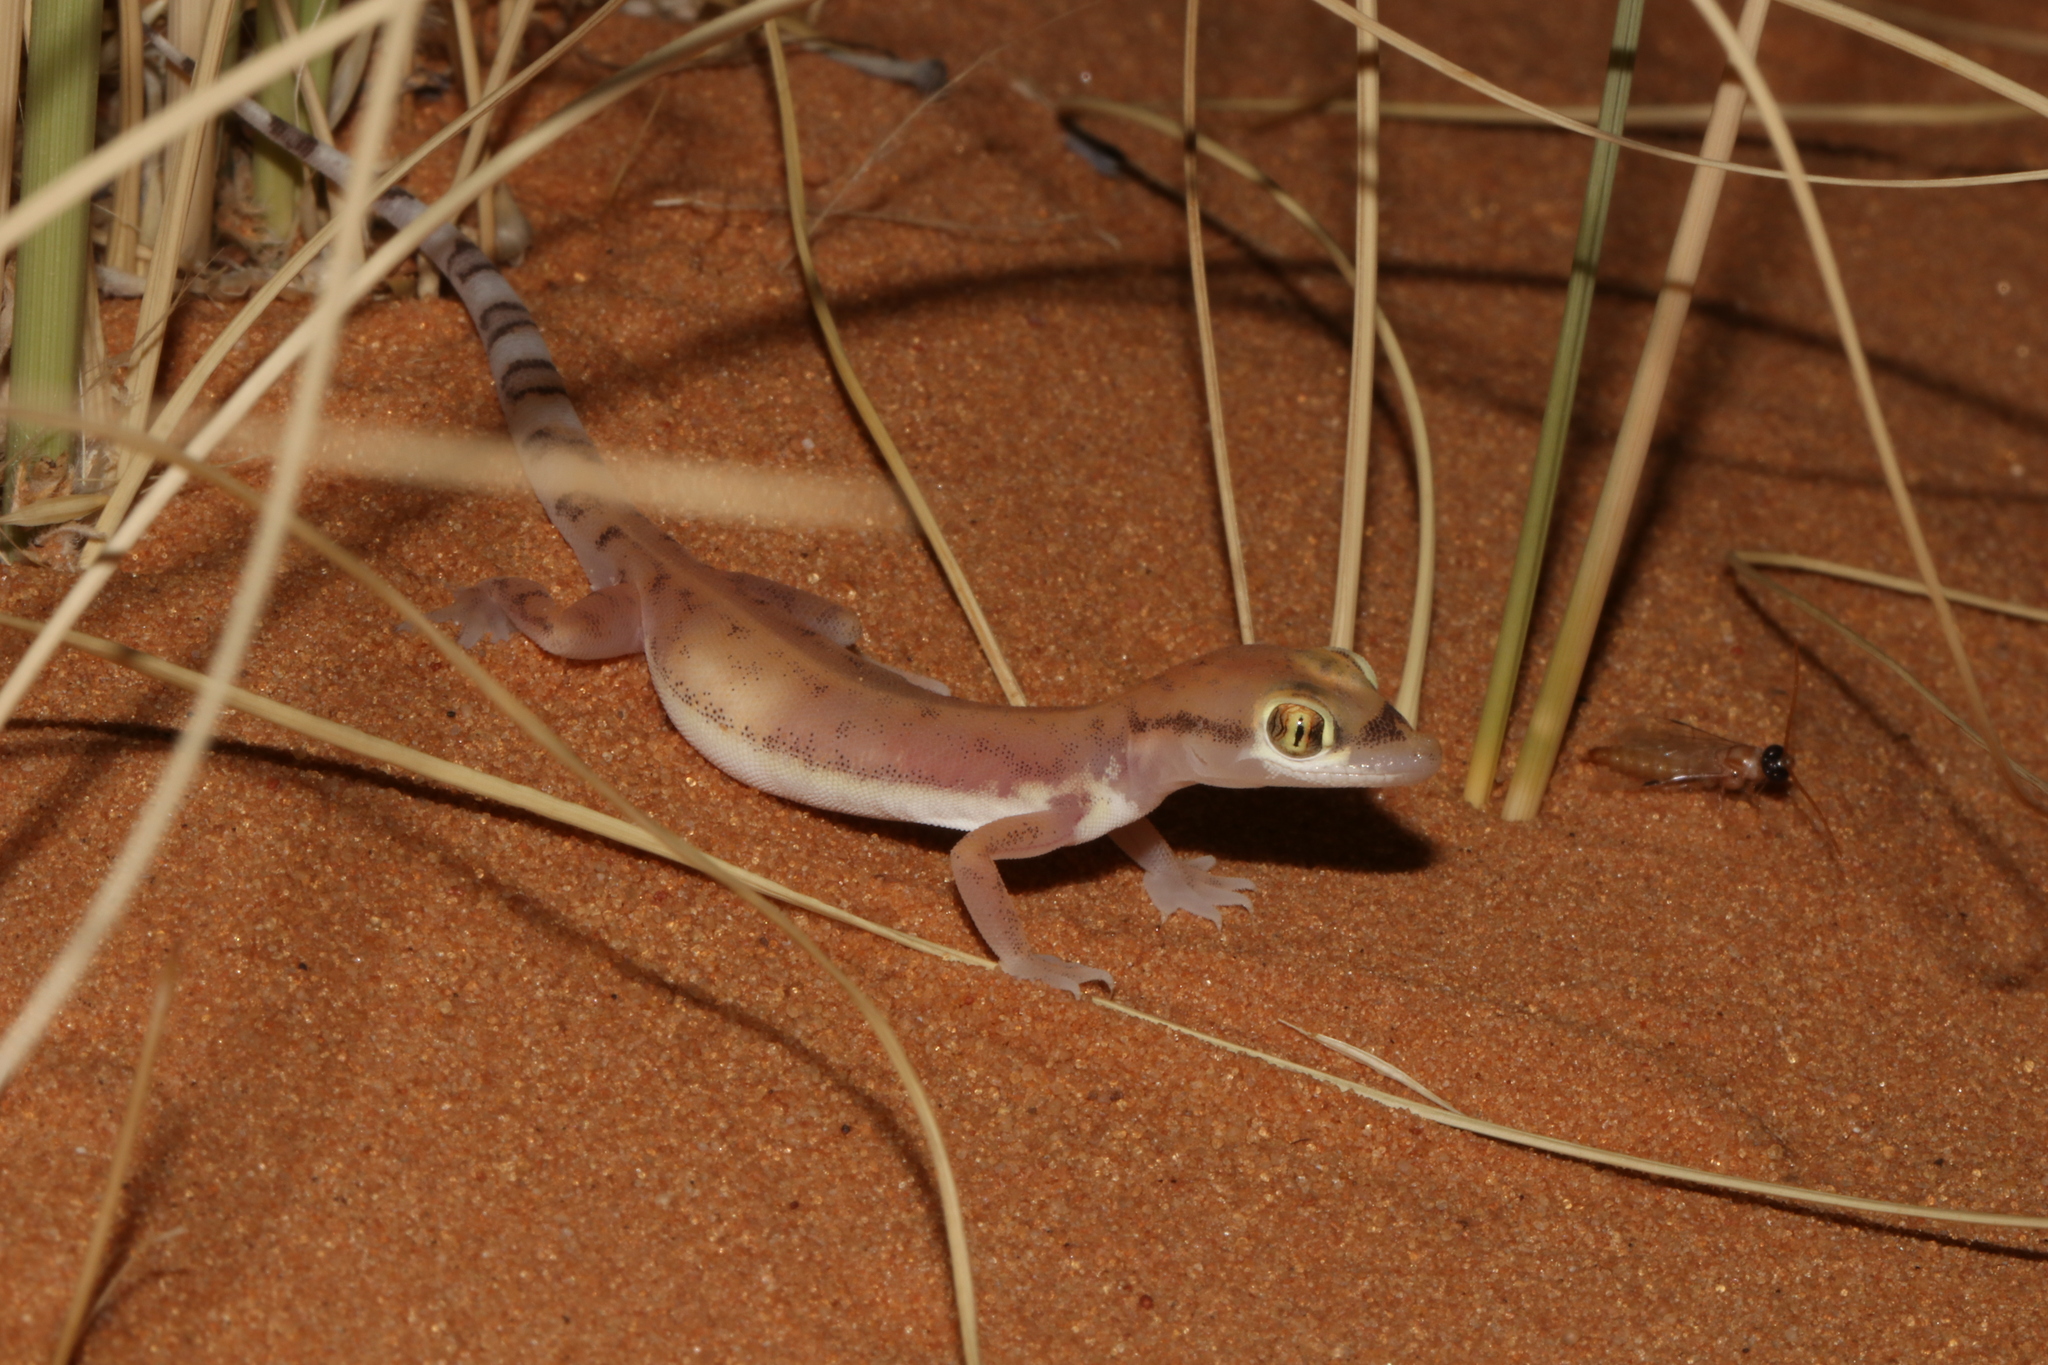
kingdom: Animalia
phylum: Chordata
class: Squamata
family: Gekkonidae
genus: Trigonodactylus
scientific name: Trigonodactylus arabicus
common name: Arabian sand gecko
